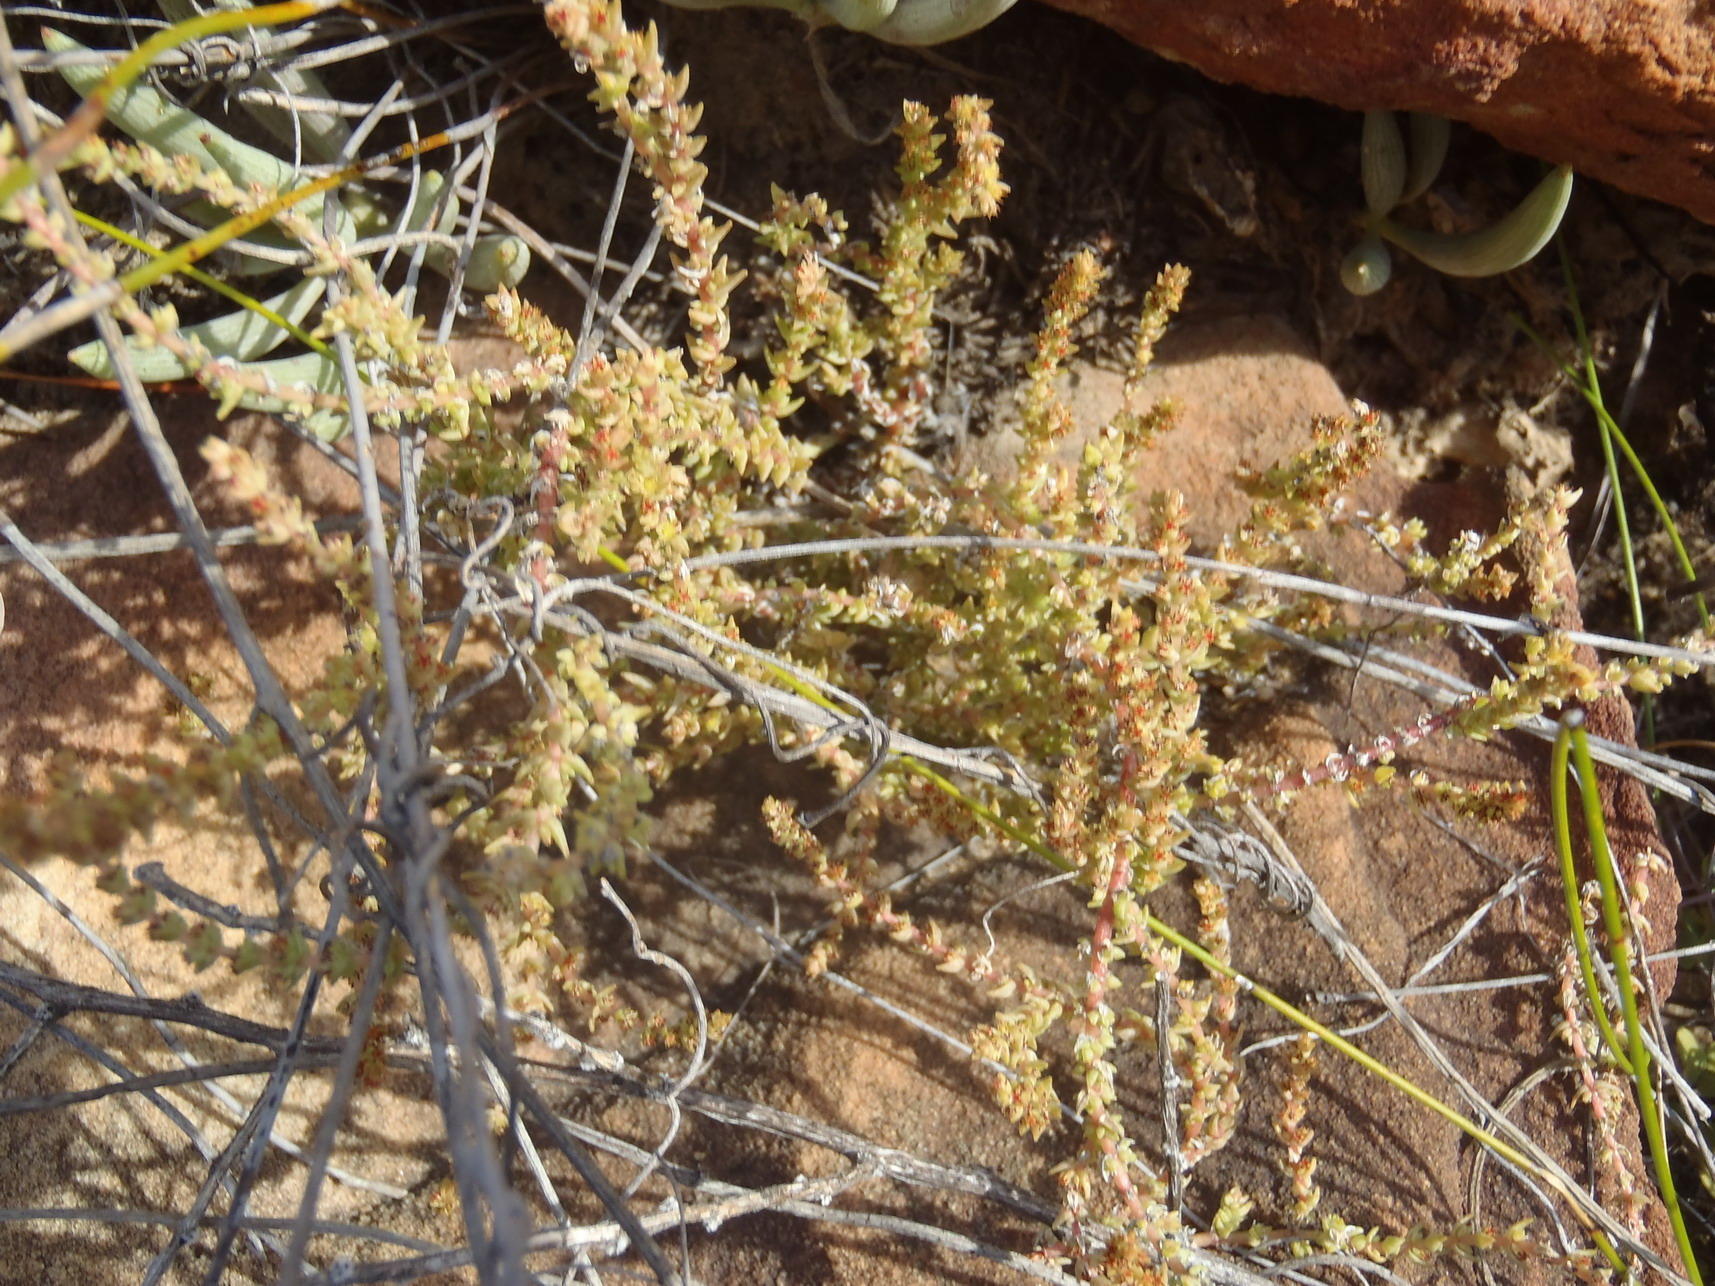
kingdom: Plantae
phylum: Tracheophyta
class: Magnoliopsida
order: Saxifragales
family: Crassulaceae
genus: Crassula
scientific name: Crassula muscosa
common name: Toy-cypress
